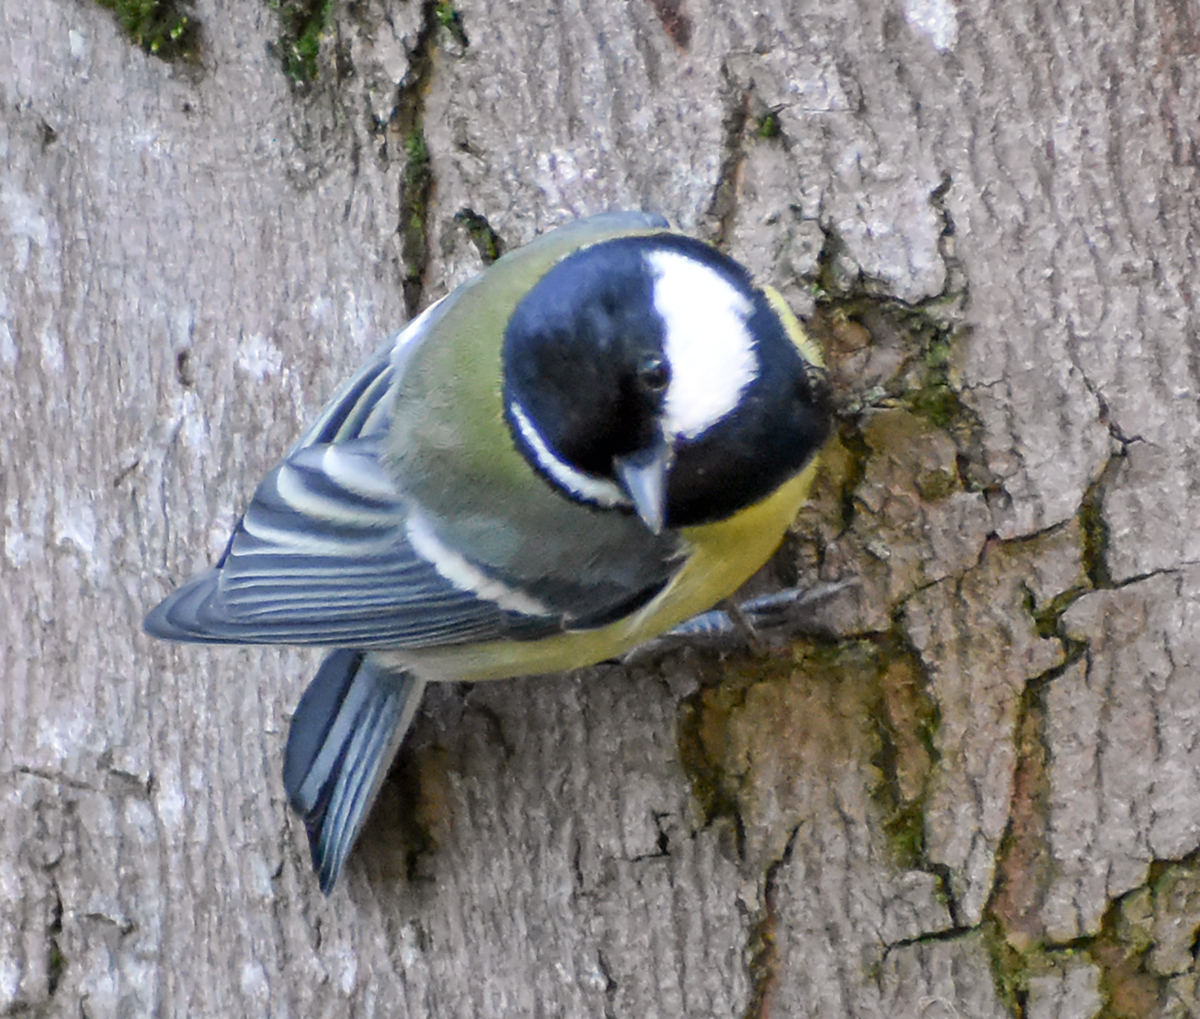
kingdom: Animalia
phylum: Chordata
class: Aves
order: Passeriformes
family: Paridae
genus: Parus
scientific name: Parus major
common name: Great tit
